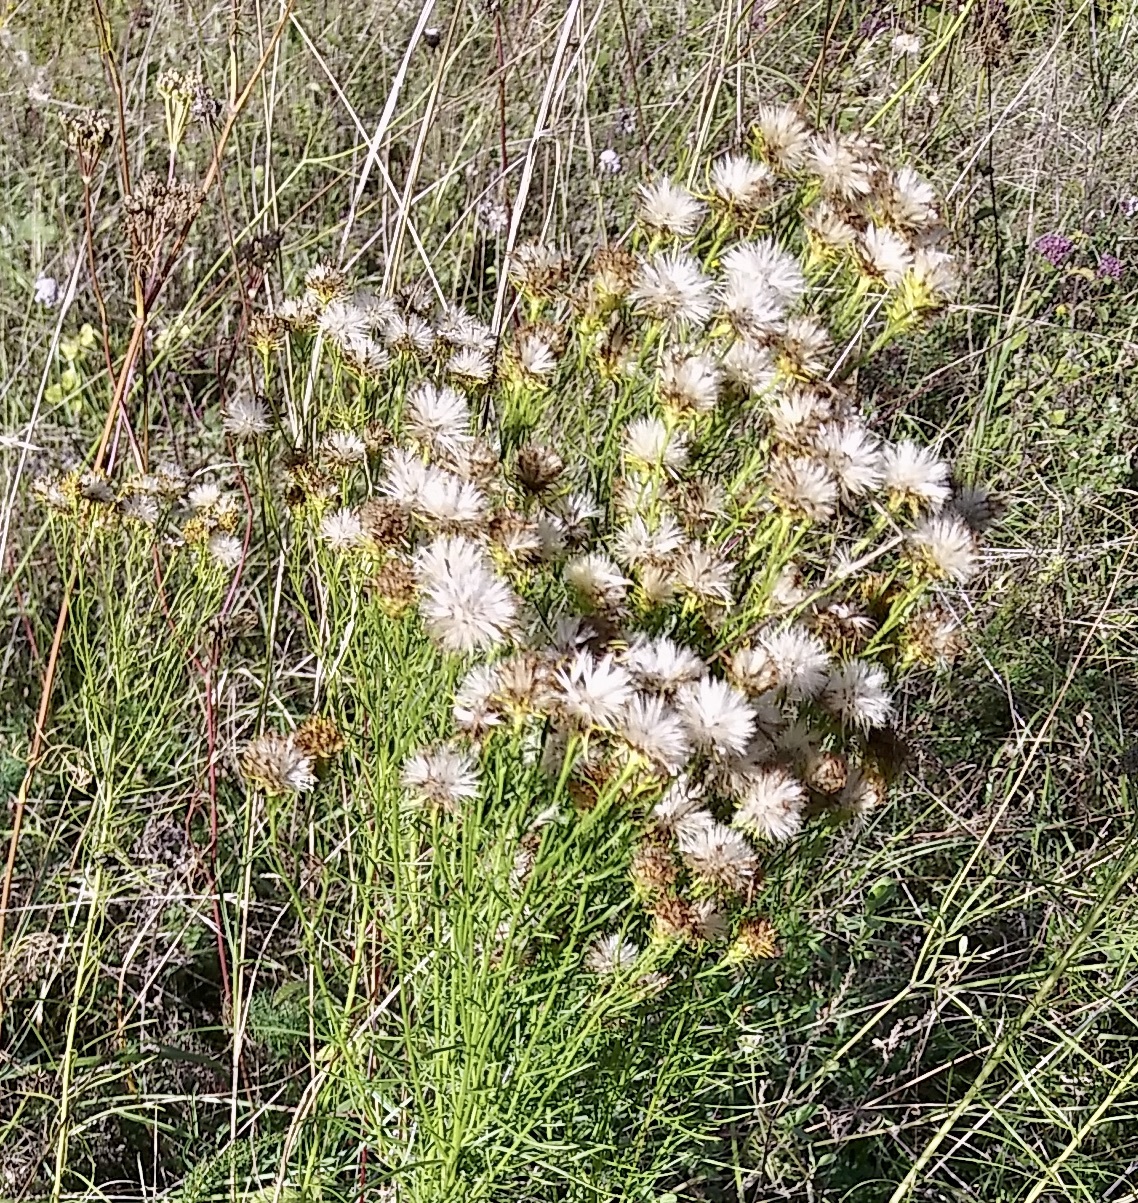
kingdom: Plantae
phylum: Tracheophyta
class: Magnoliopsida
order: Asterales
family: Asteraceae
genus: Galatella
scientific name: Galatella linosyris
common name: Goldilocks aster
